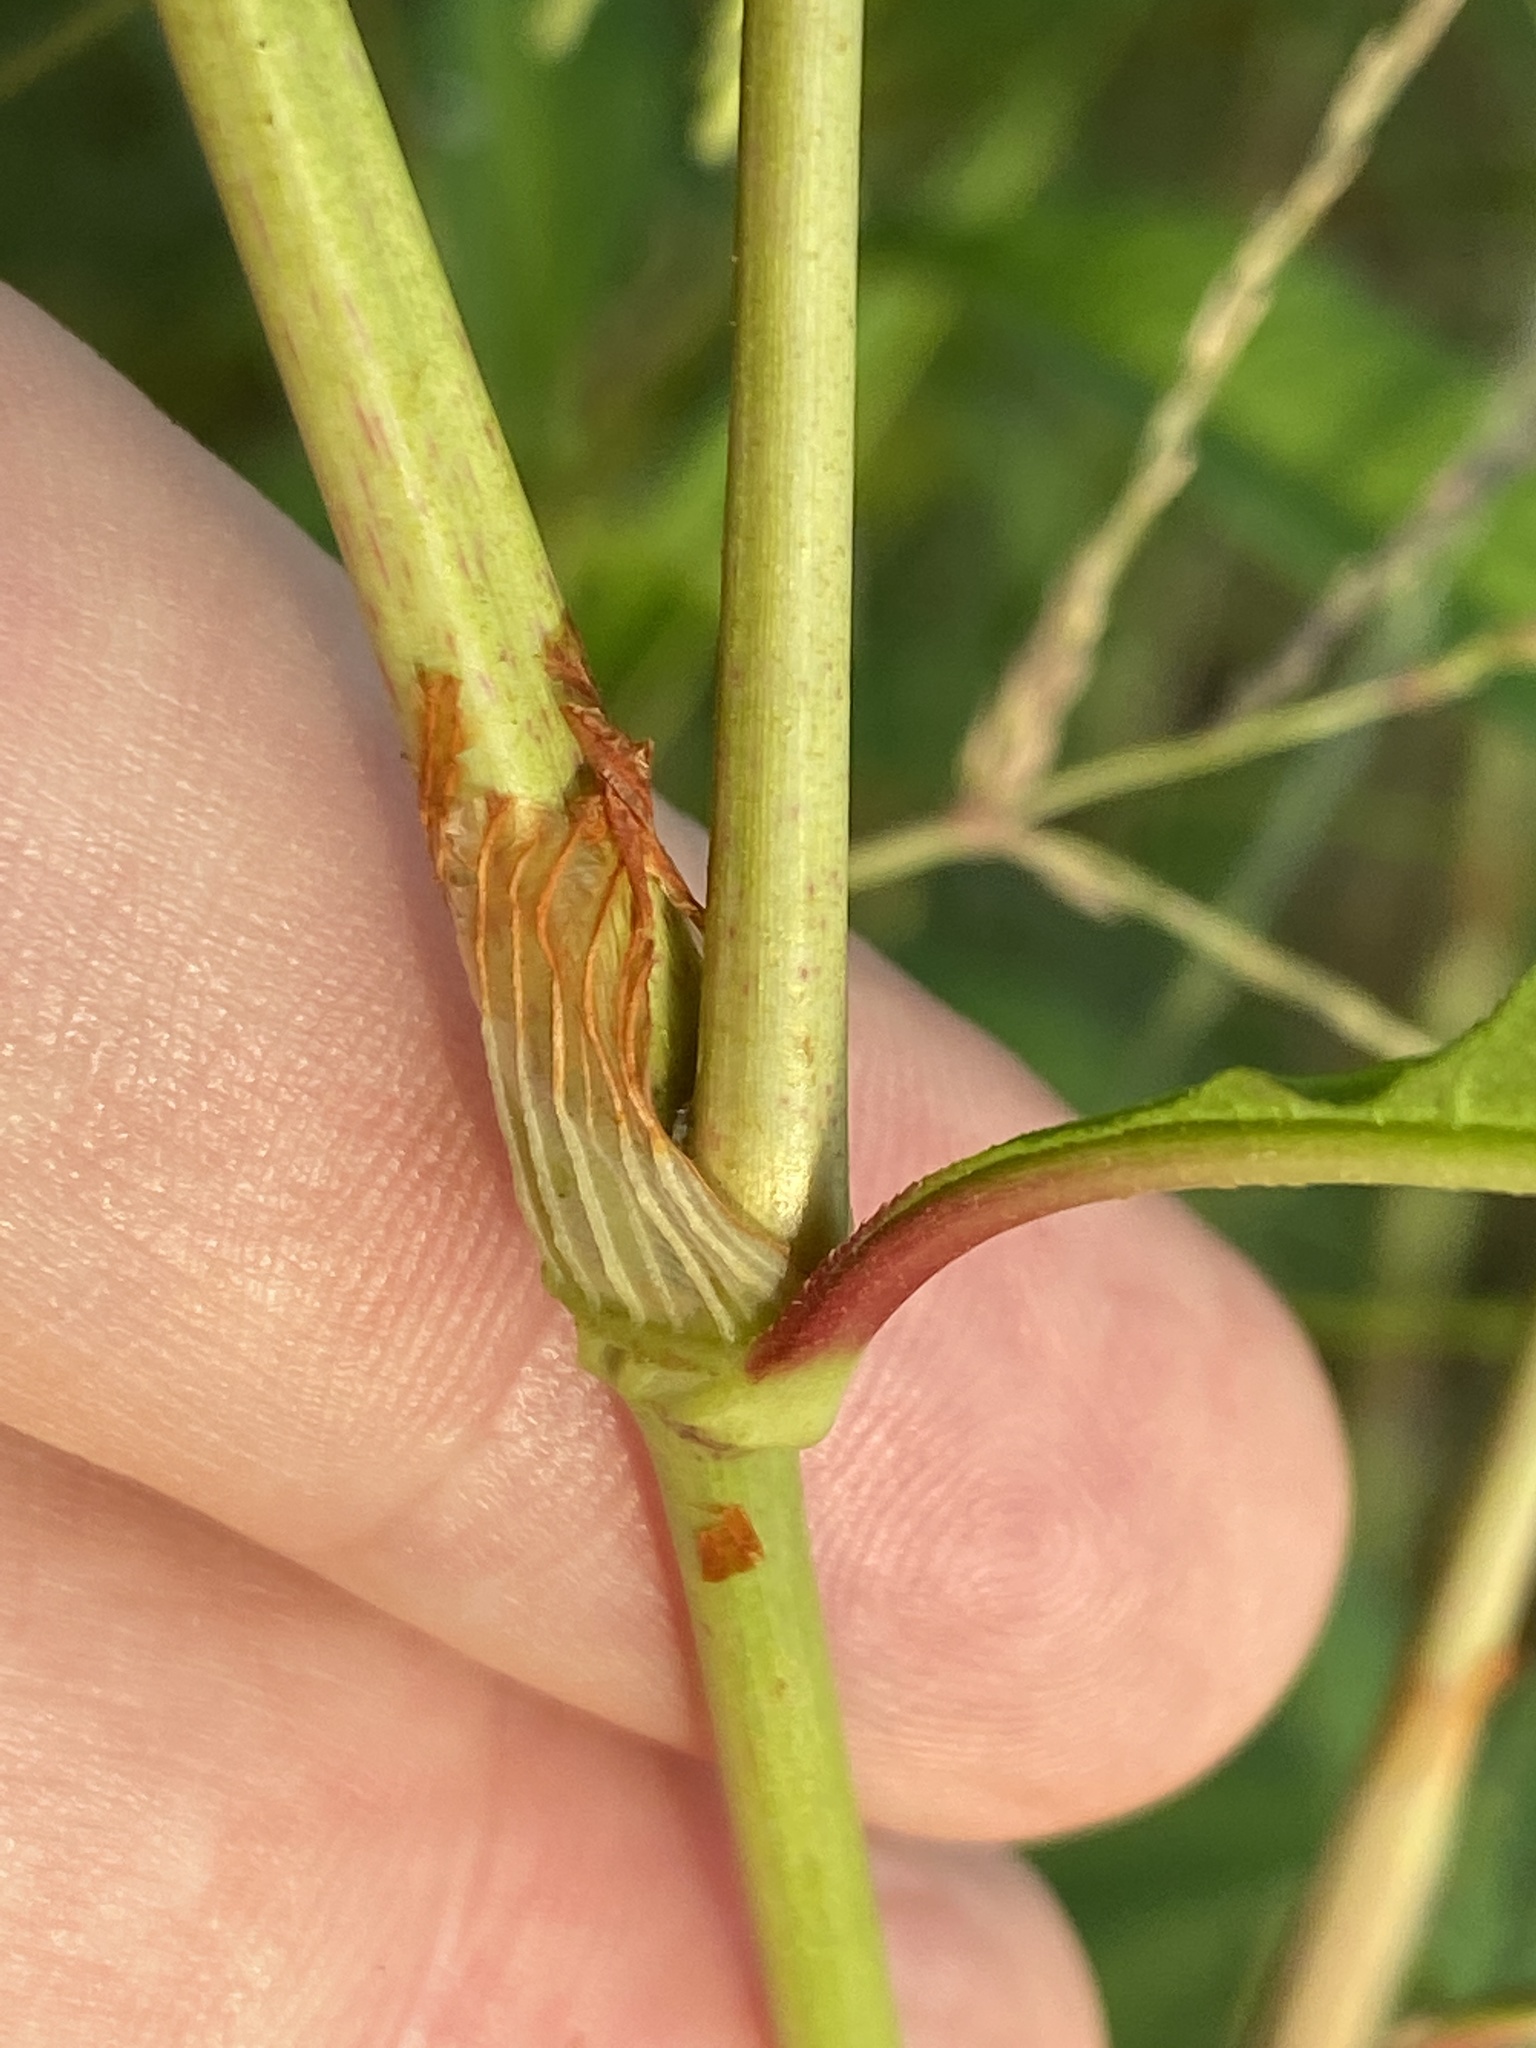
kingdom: Plantae
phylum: Tracheophyta
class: Magnoliopsida
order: Caryophyllales
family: Polygonaceae
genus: Persicaria
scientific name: Persicaria lapathifolia
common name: Curlytop knotweed
